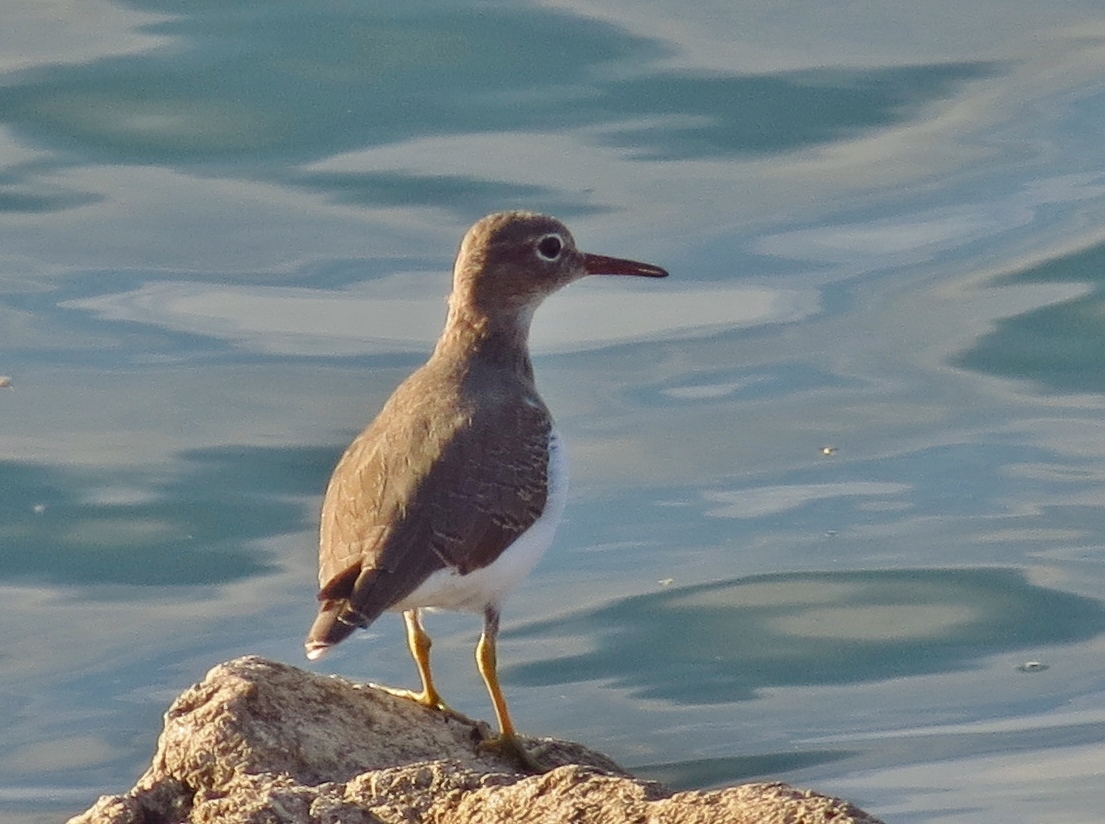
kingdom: Animalia
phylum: Chordata
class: Aves
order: Charadriiformes
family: Scolopacidae
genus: Actitis
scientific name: Actitis macularius
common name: Spotted sandpiper
